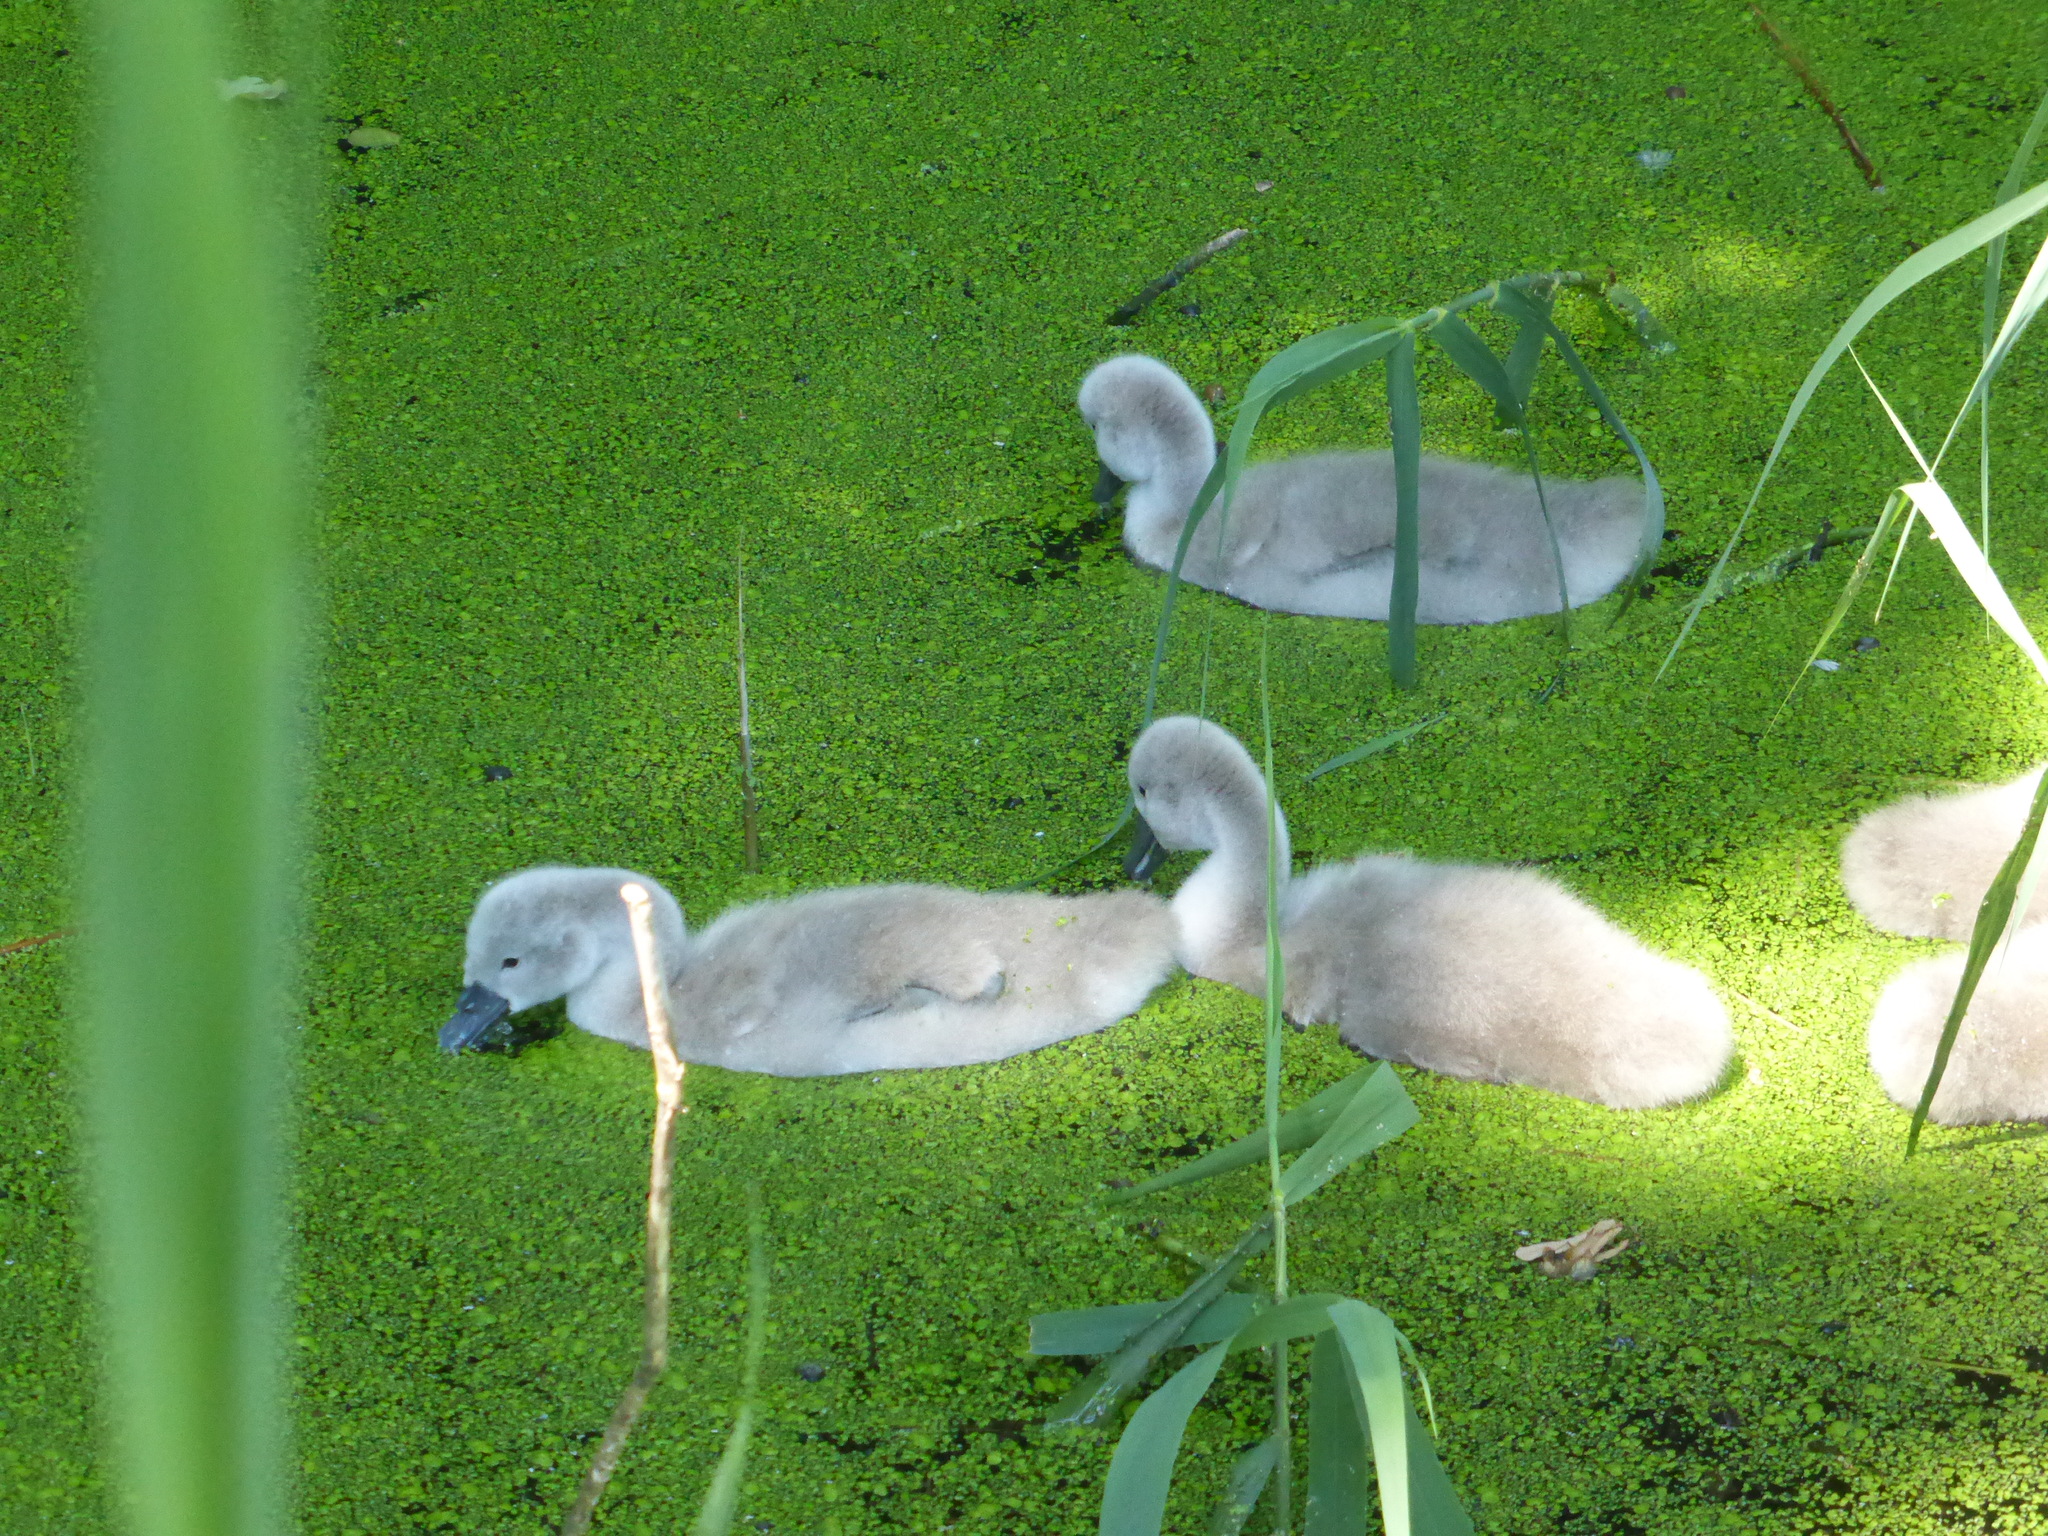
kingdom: Animalia
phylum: Chordata
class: Aves
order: Anseriformes
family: Anatidae
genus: Cygnus
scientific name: Cygnus olor
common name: Mute swan
